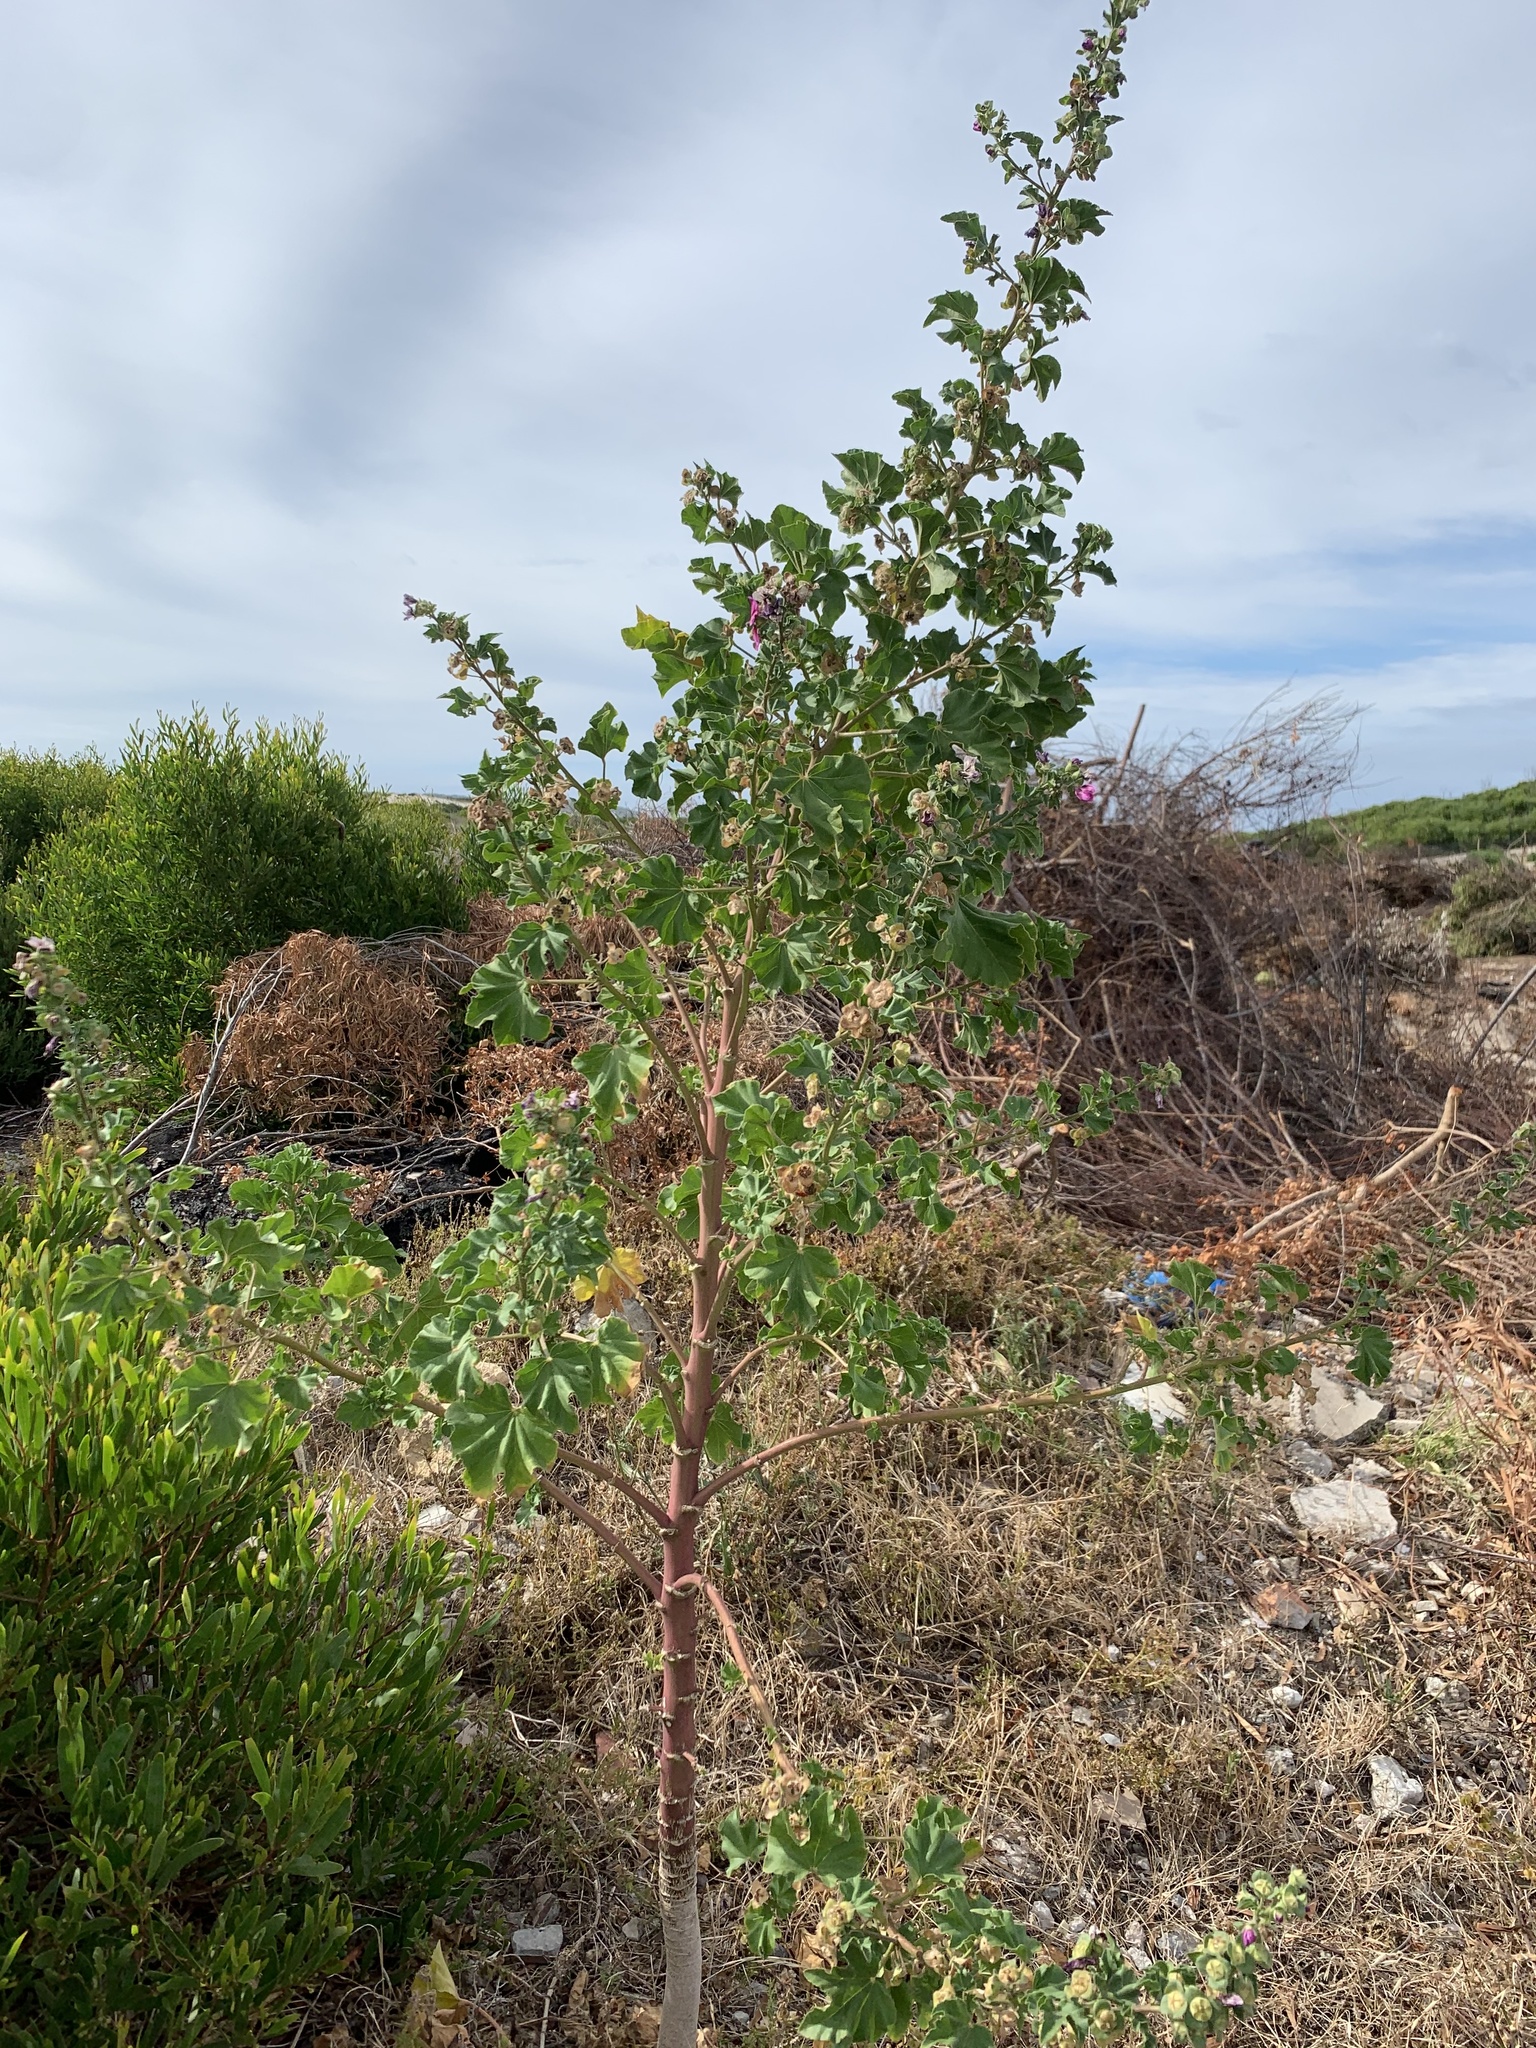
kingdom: Plantae
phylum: Tracheophyta
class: Magnoliopsida
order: Malvales
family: Malvaceae
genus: Malva
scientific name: Malva arborea
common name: Tree mallow
